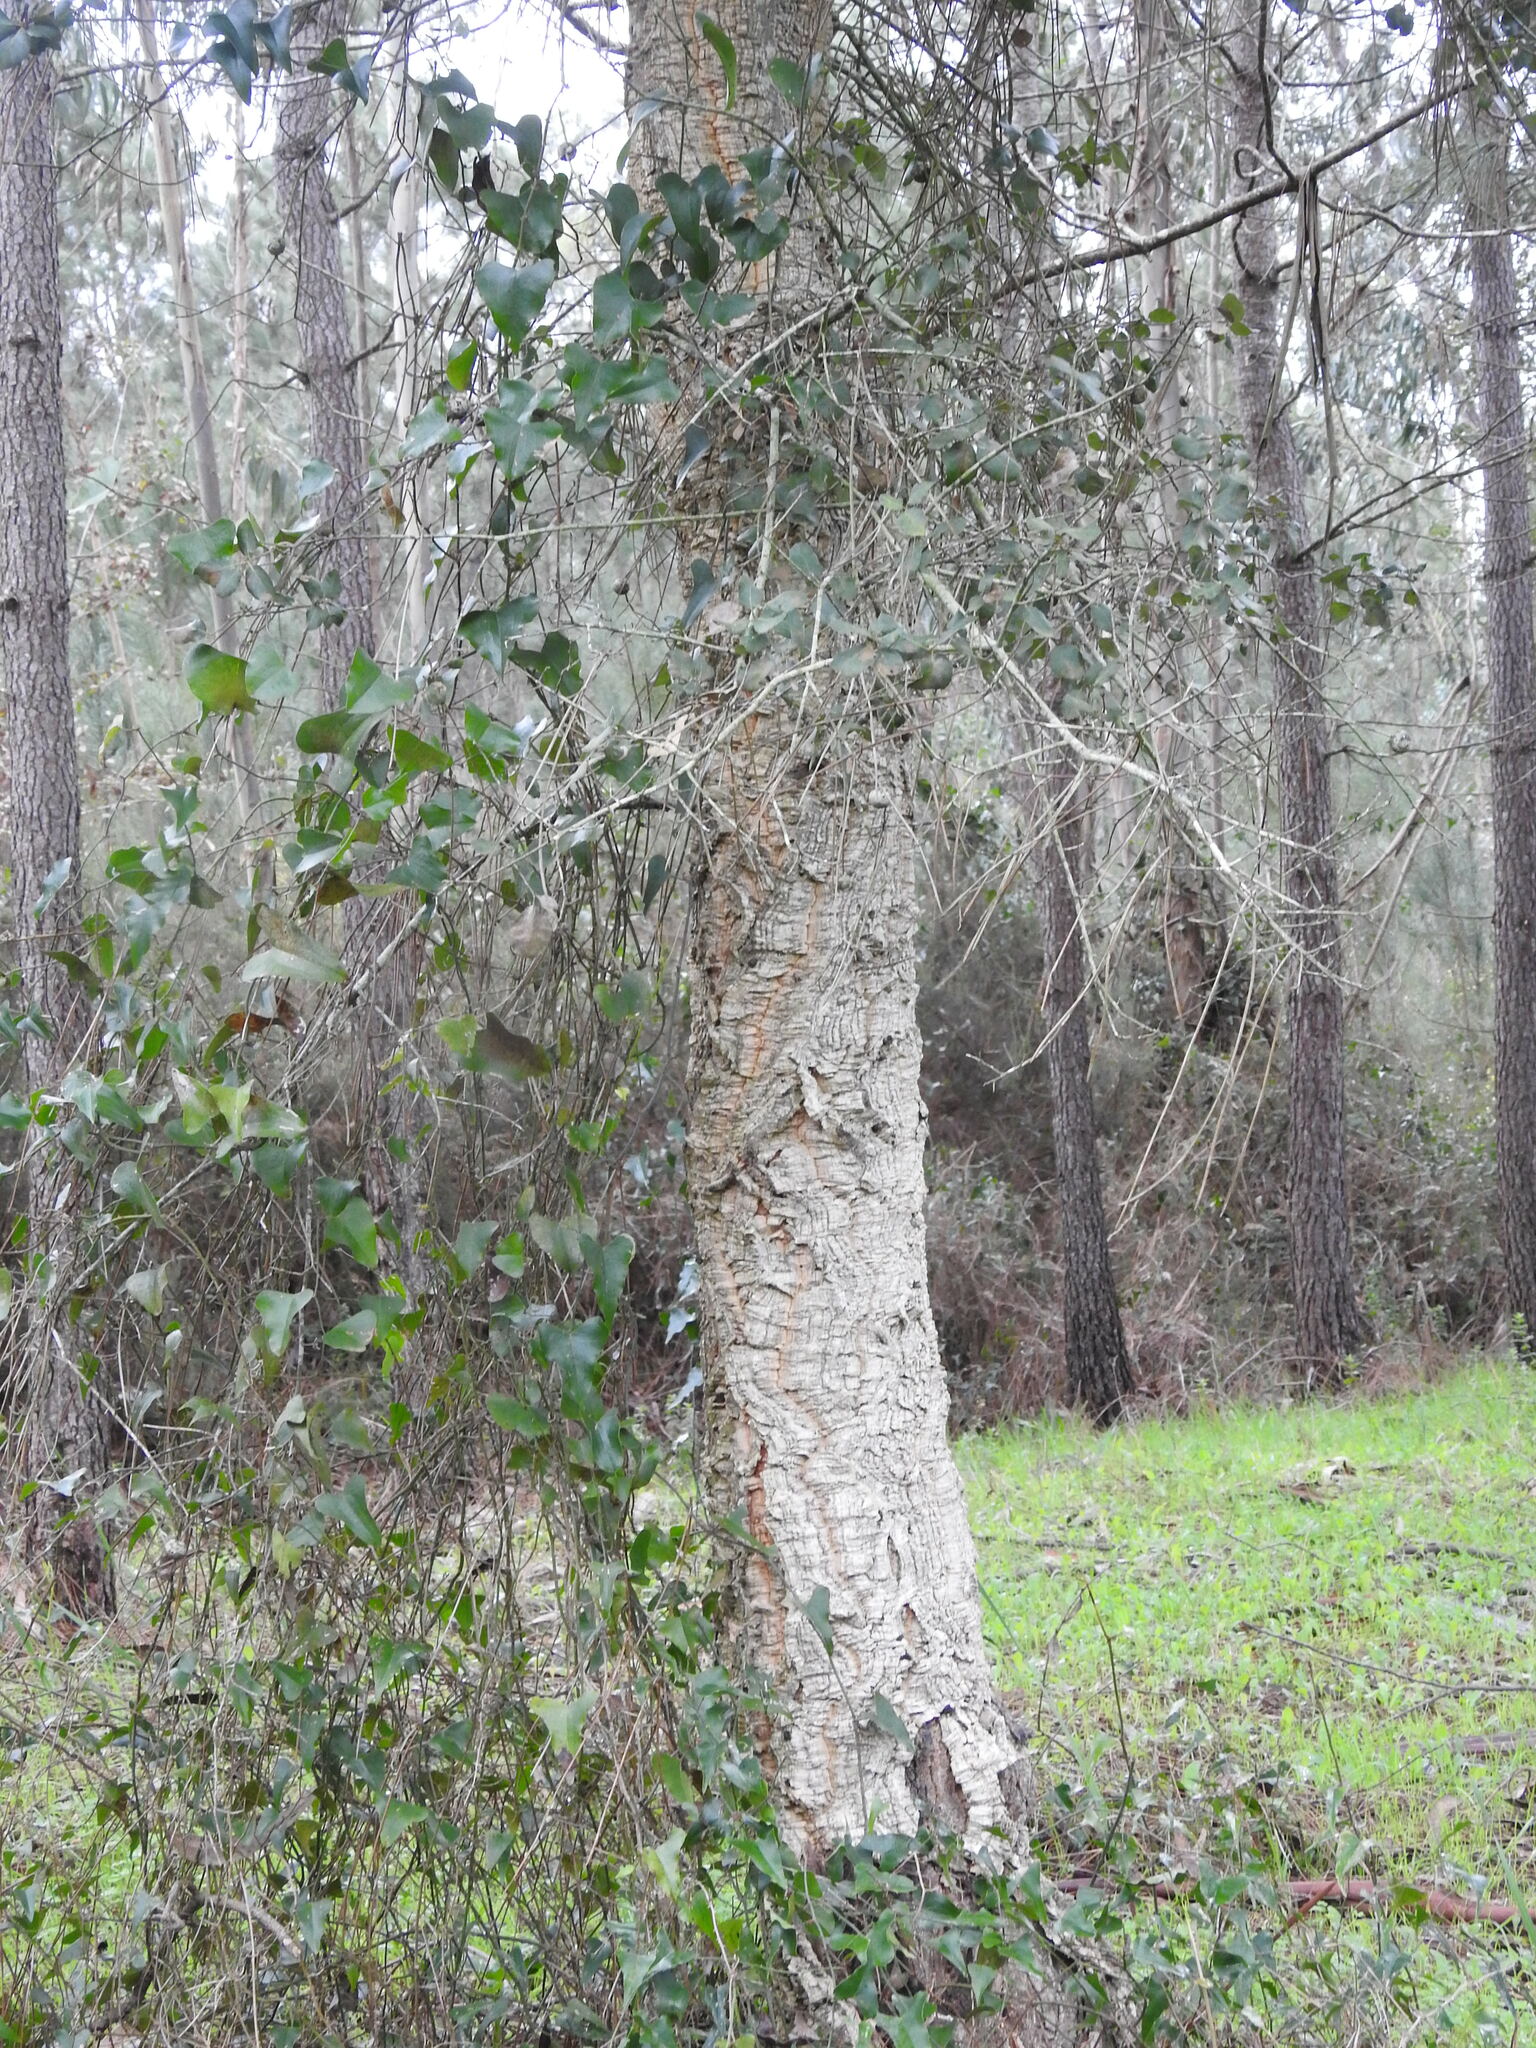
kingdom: Plantae
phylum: Tracheophyta
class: Magnoliopsida
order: Fagales
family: Fagaceae
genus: Quercus
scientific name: Quercus suber
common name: Cork oak
